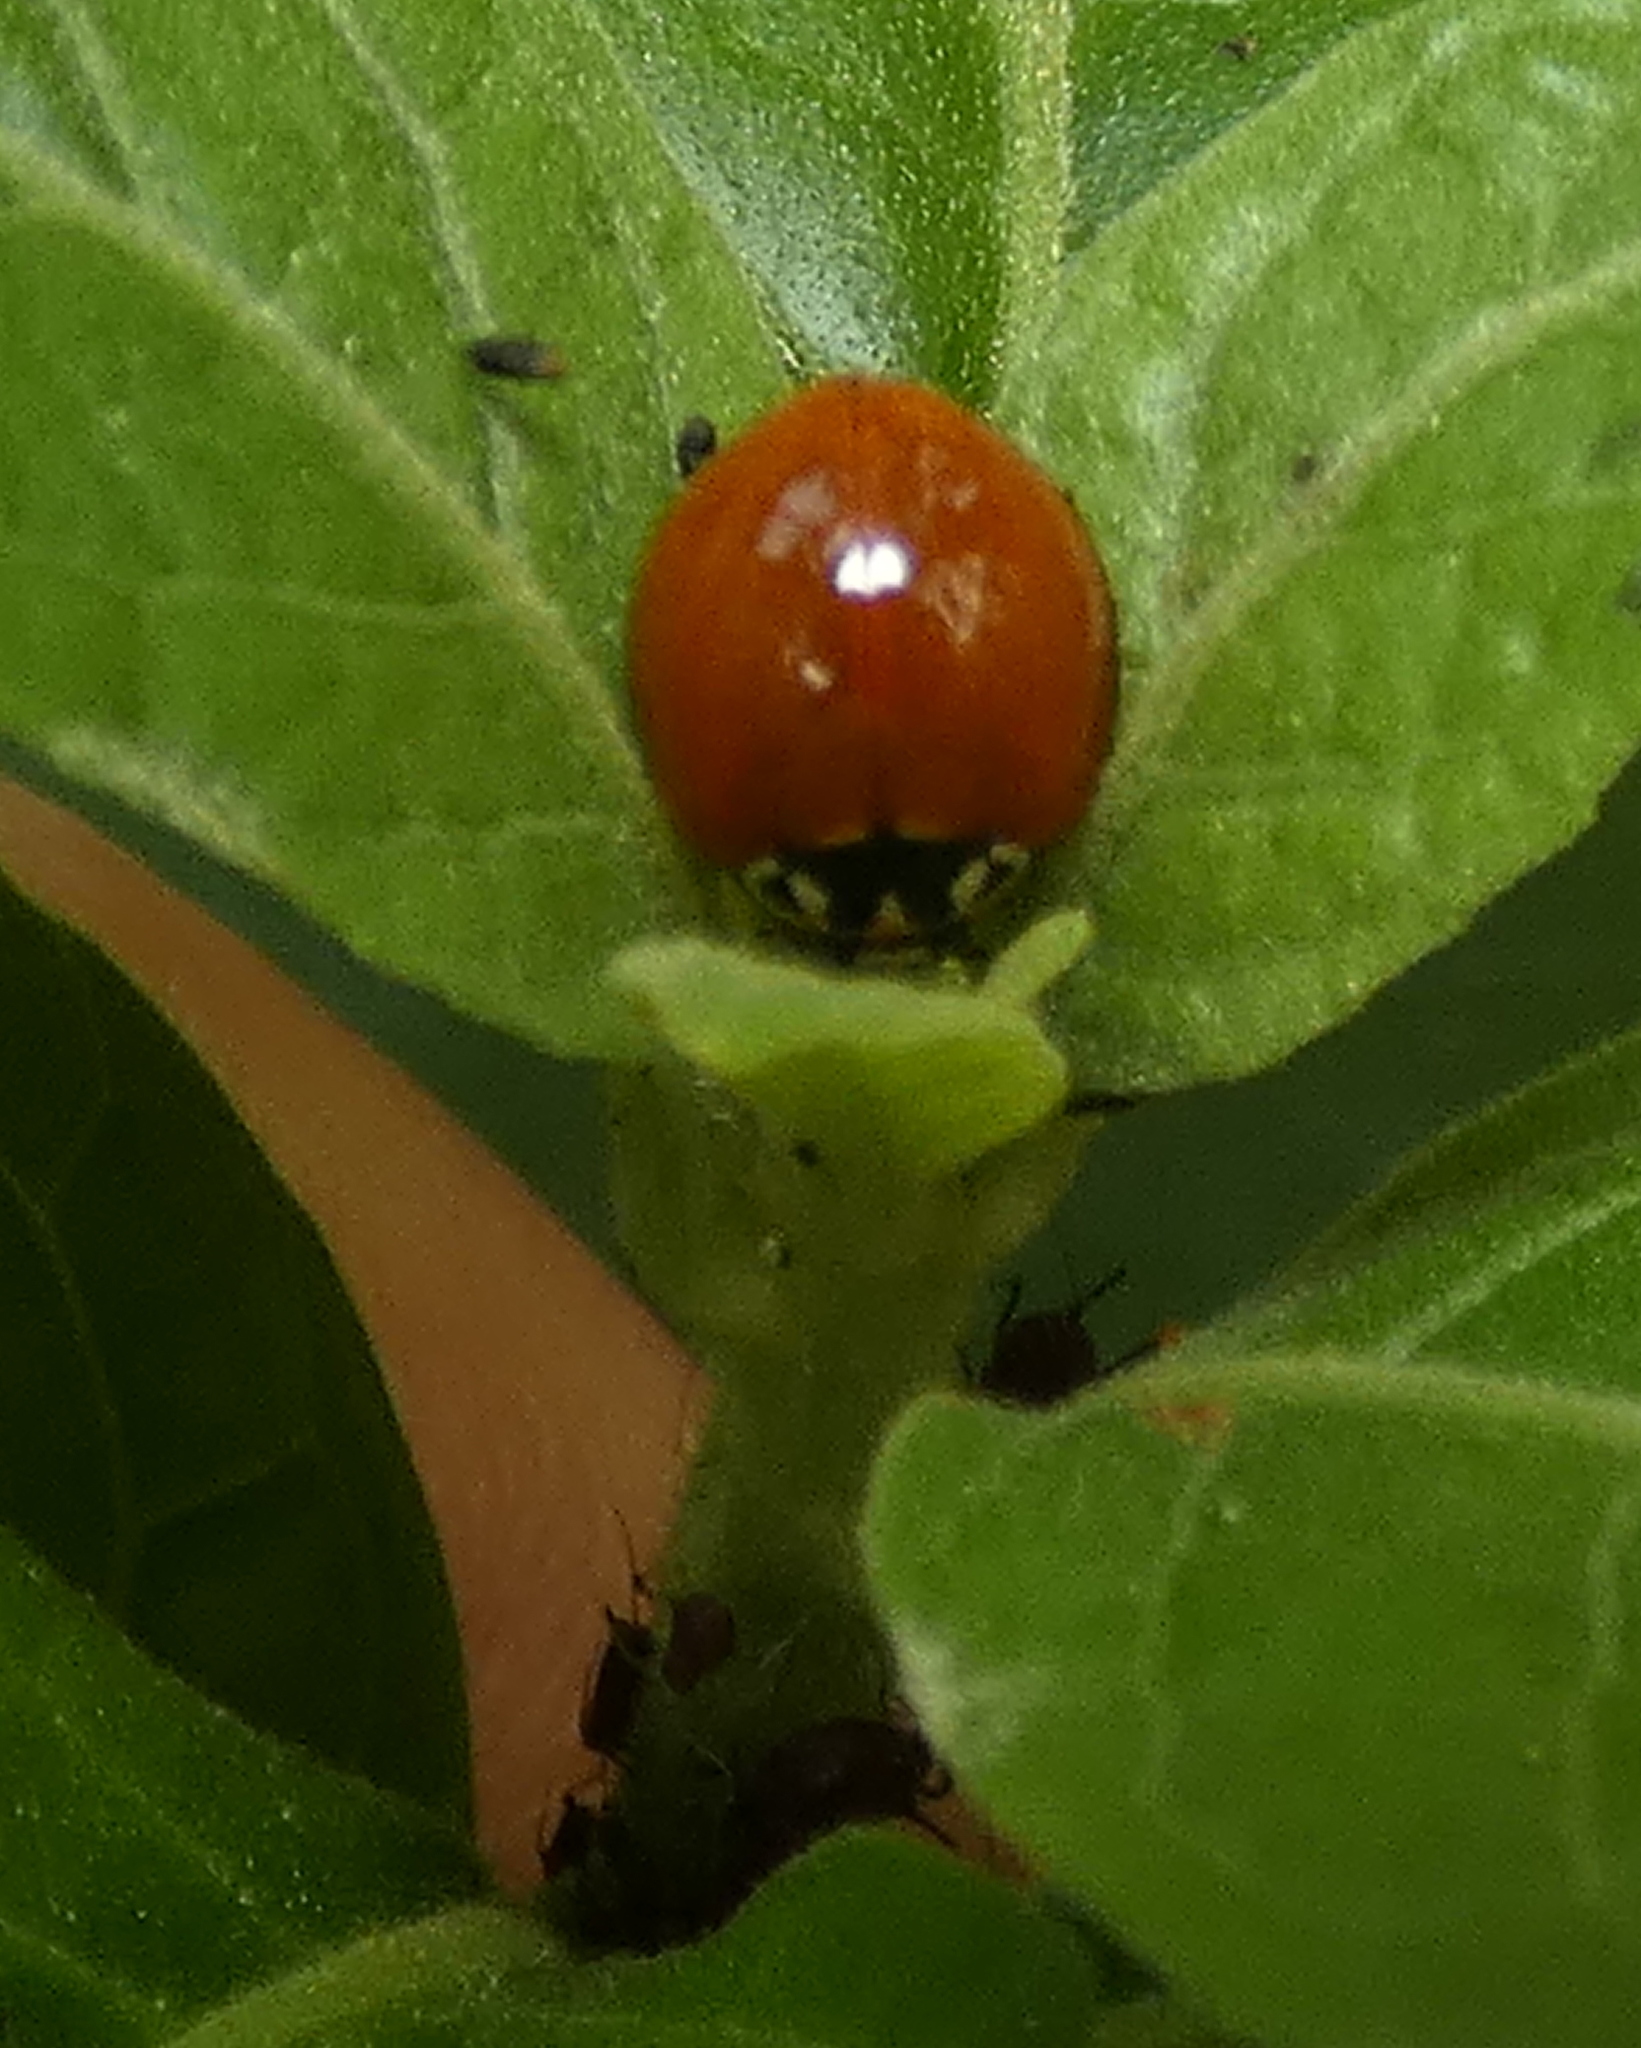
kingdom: Animalia
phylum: Arthropoda
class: Insecta
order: Coleoptera
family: Coccinellidae
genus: Cycloneda
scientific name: Cycloneda sanguinea
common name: Ladybird beetle
